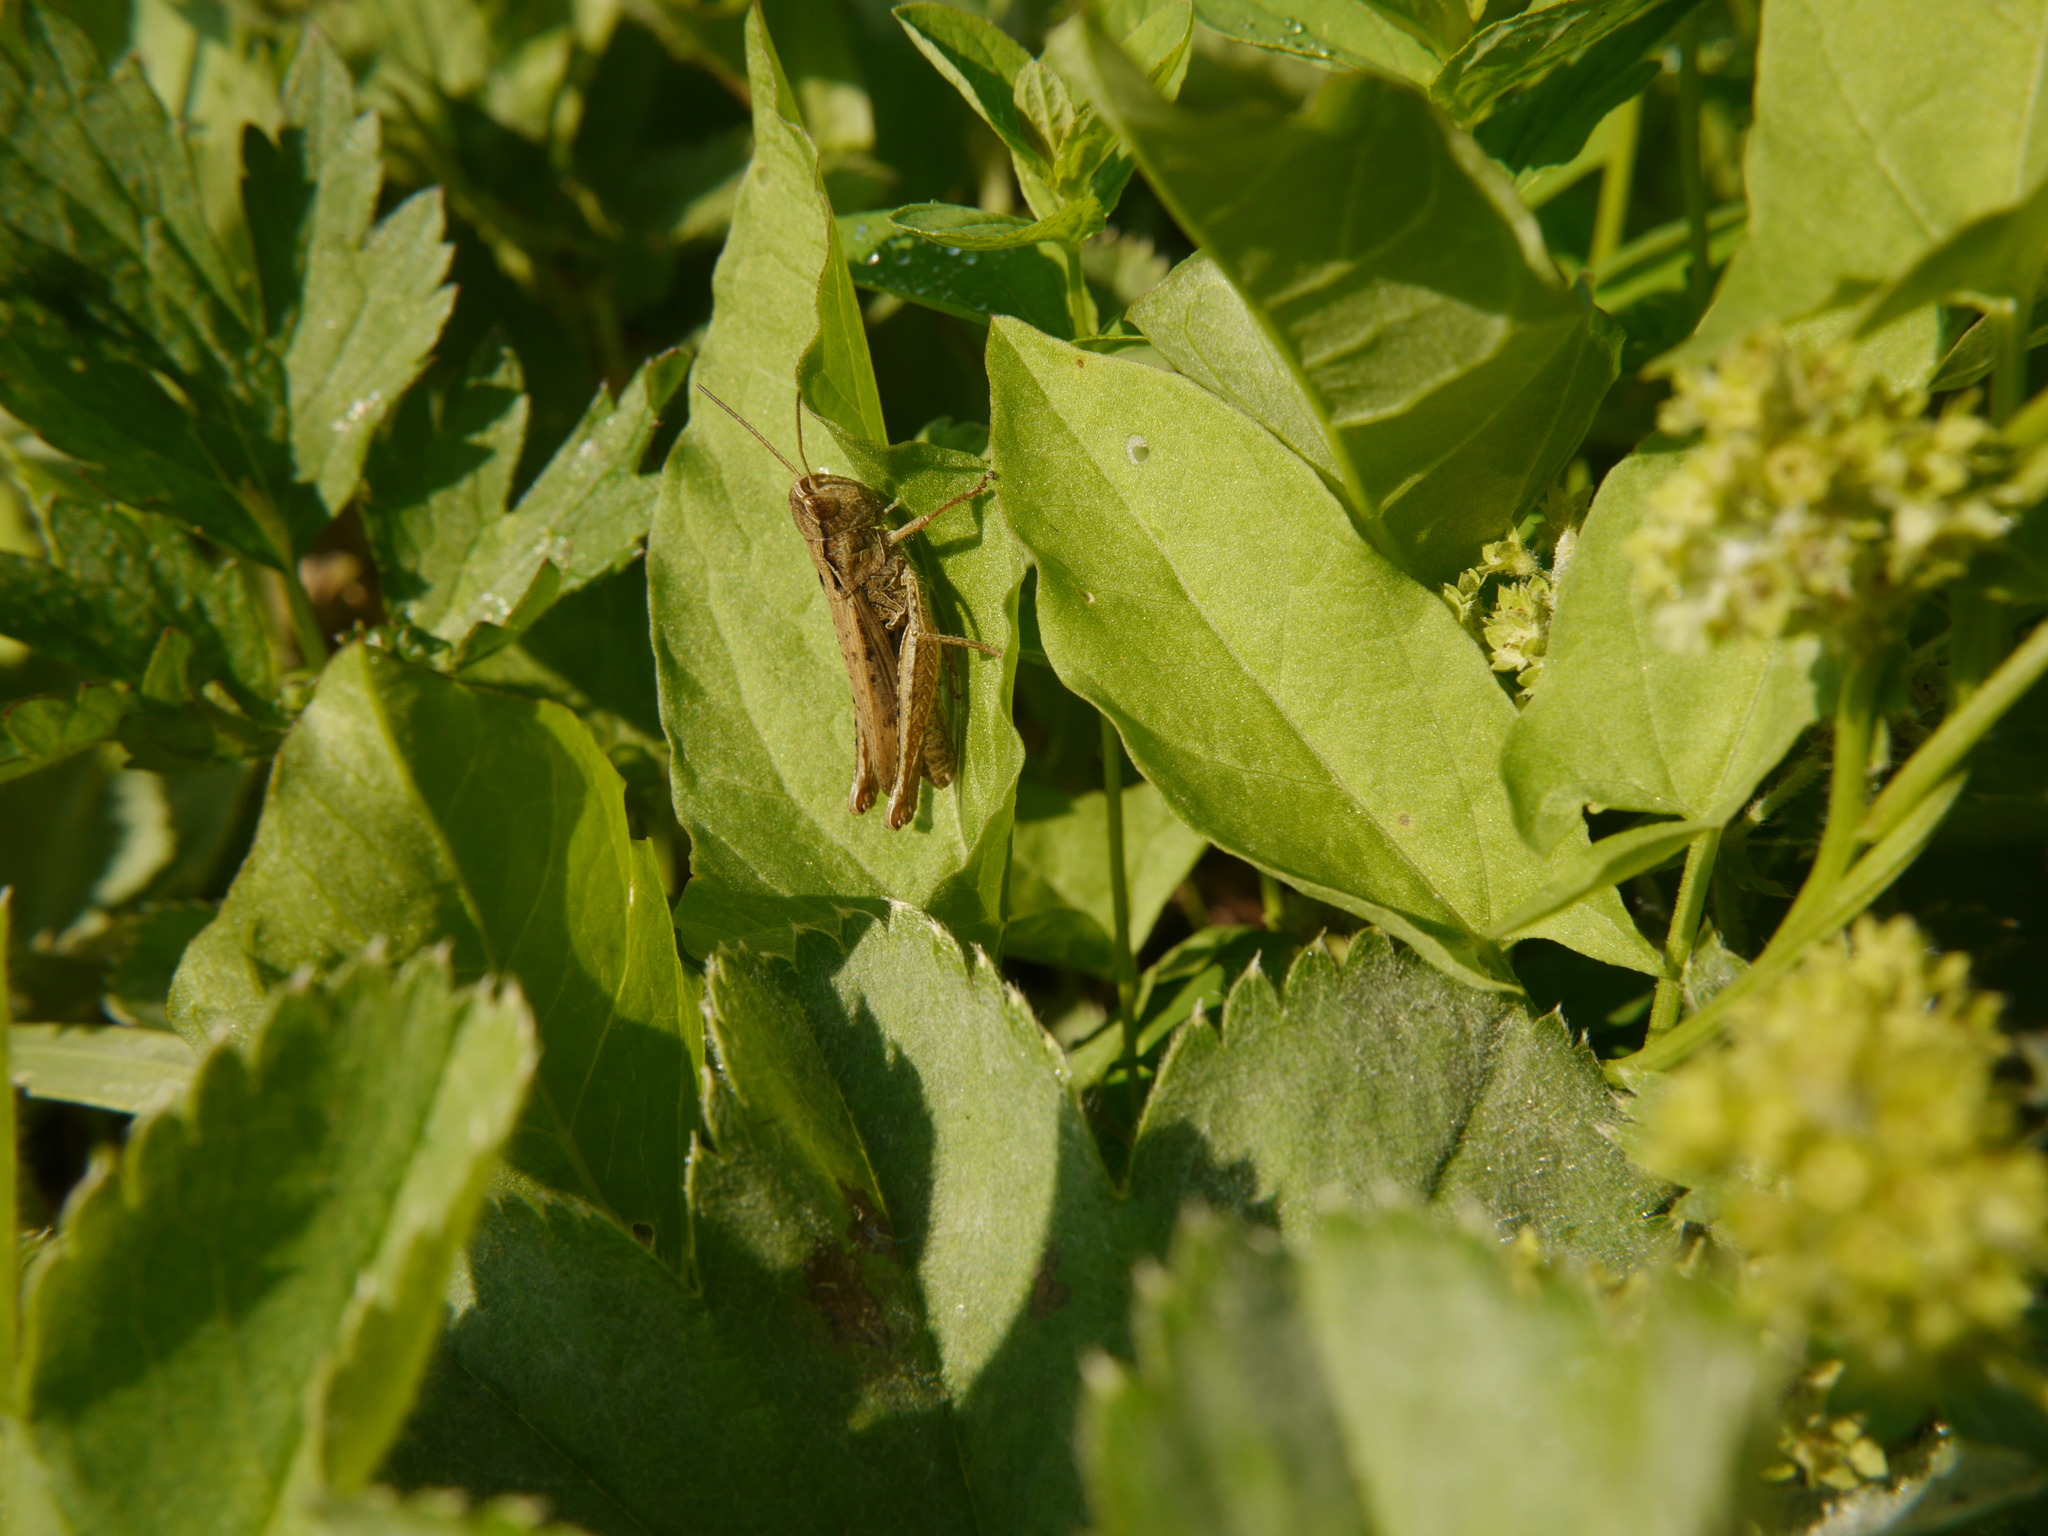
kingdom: Animalia
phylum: Arthropoda
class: Insecta
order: Orthoptera
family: Acrididae
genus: Pseudochorthippus
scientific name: Pseudochorthippus parallelus
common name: Meadow grasshopper
